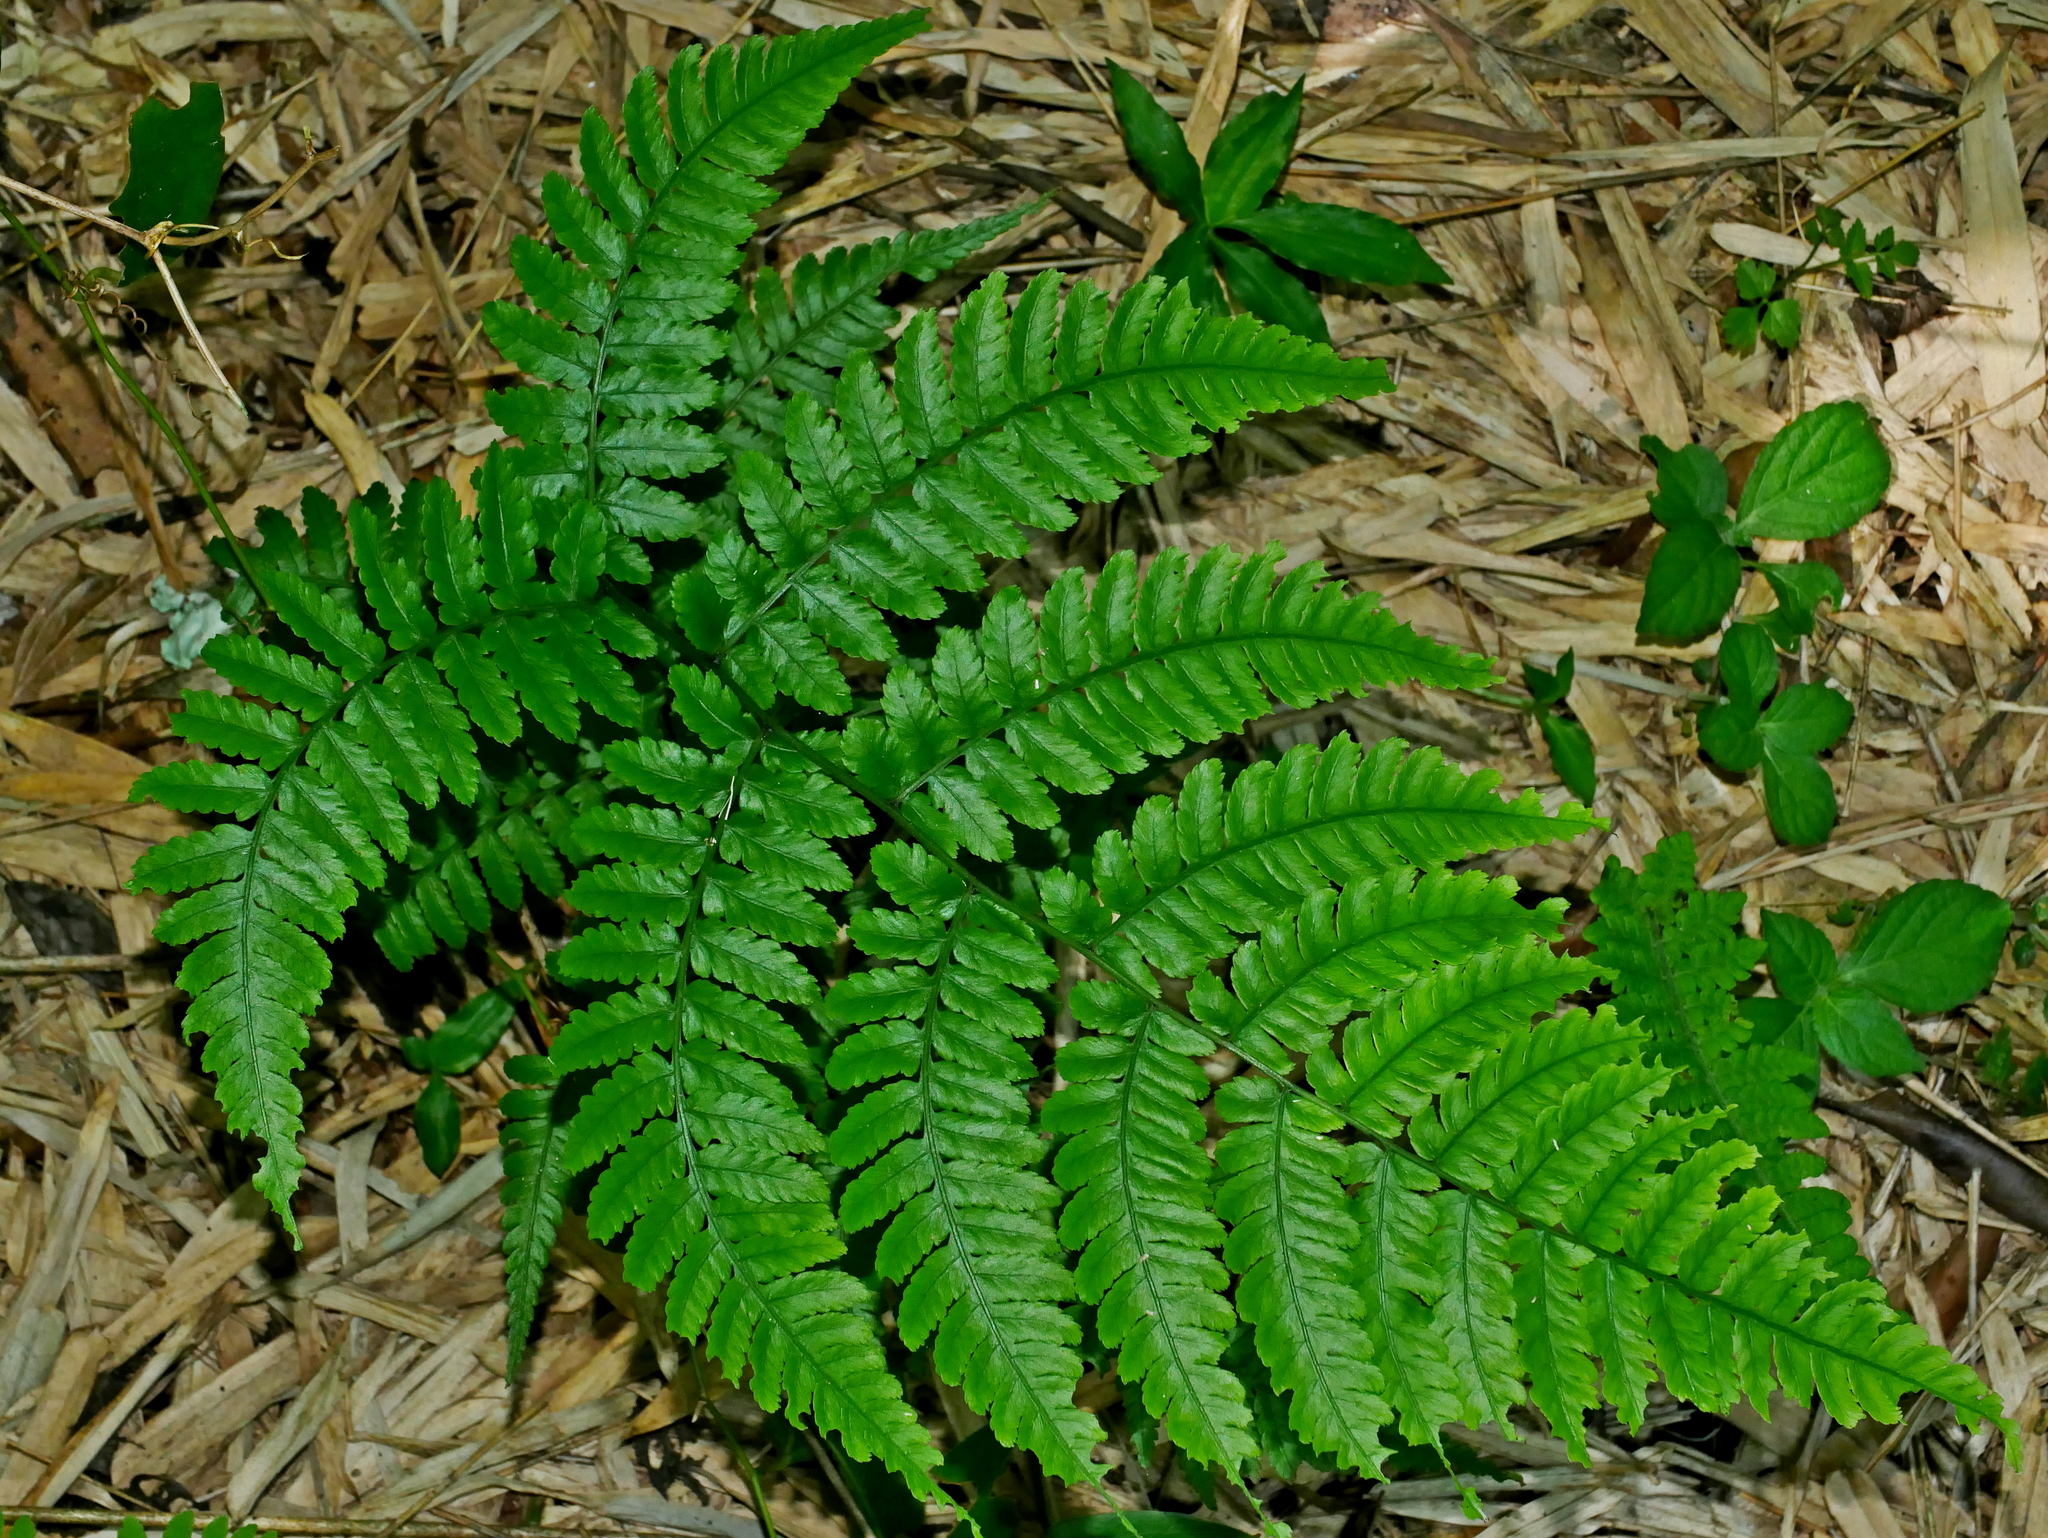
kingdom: Plantae
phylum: Tracheophyta
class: Polypodiopsida
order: Polypodiales
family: Athyriaceae
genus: Diplazium
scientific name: Diplazium laxifrons
